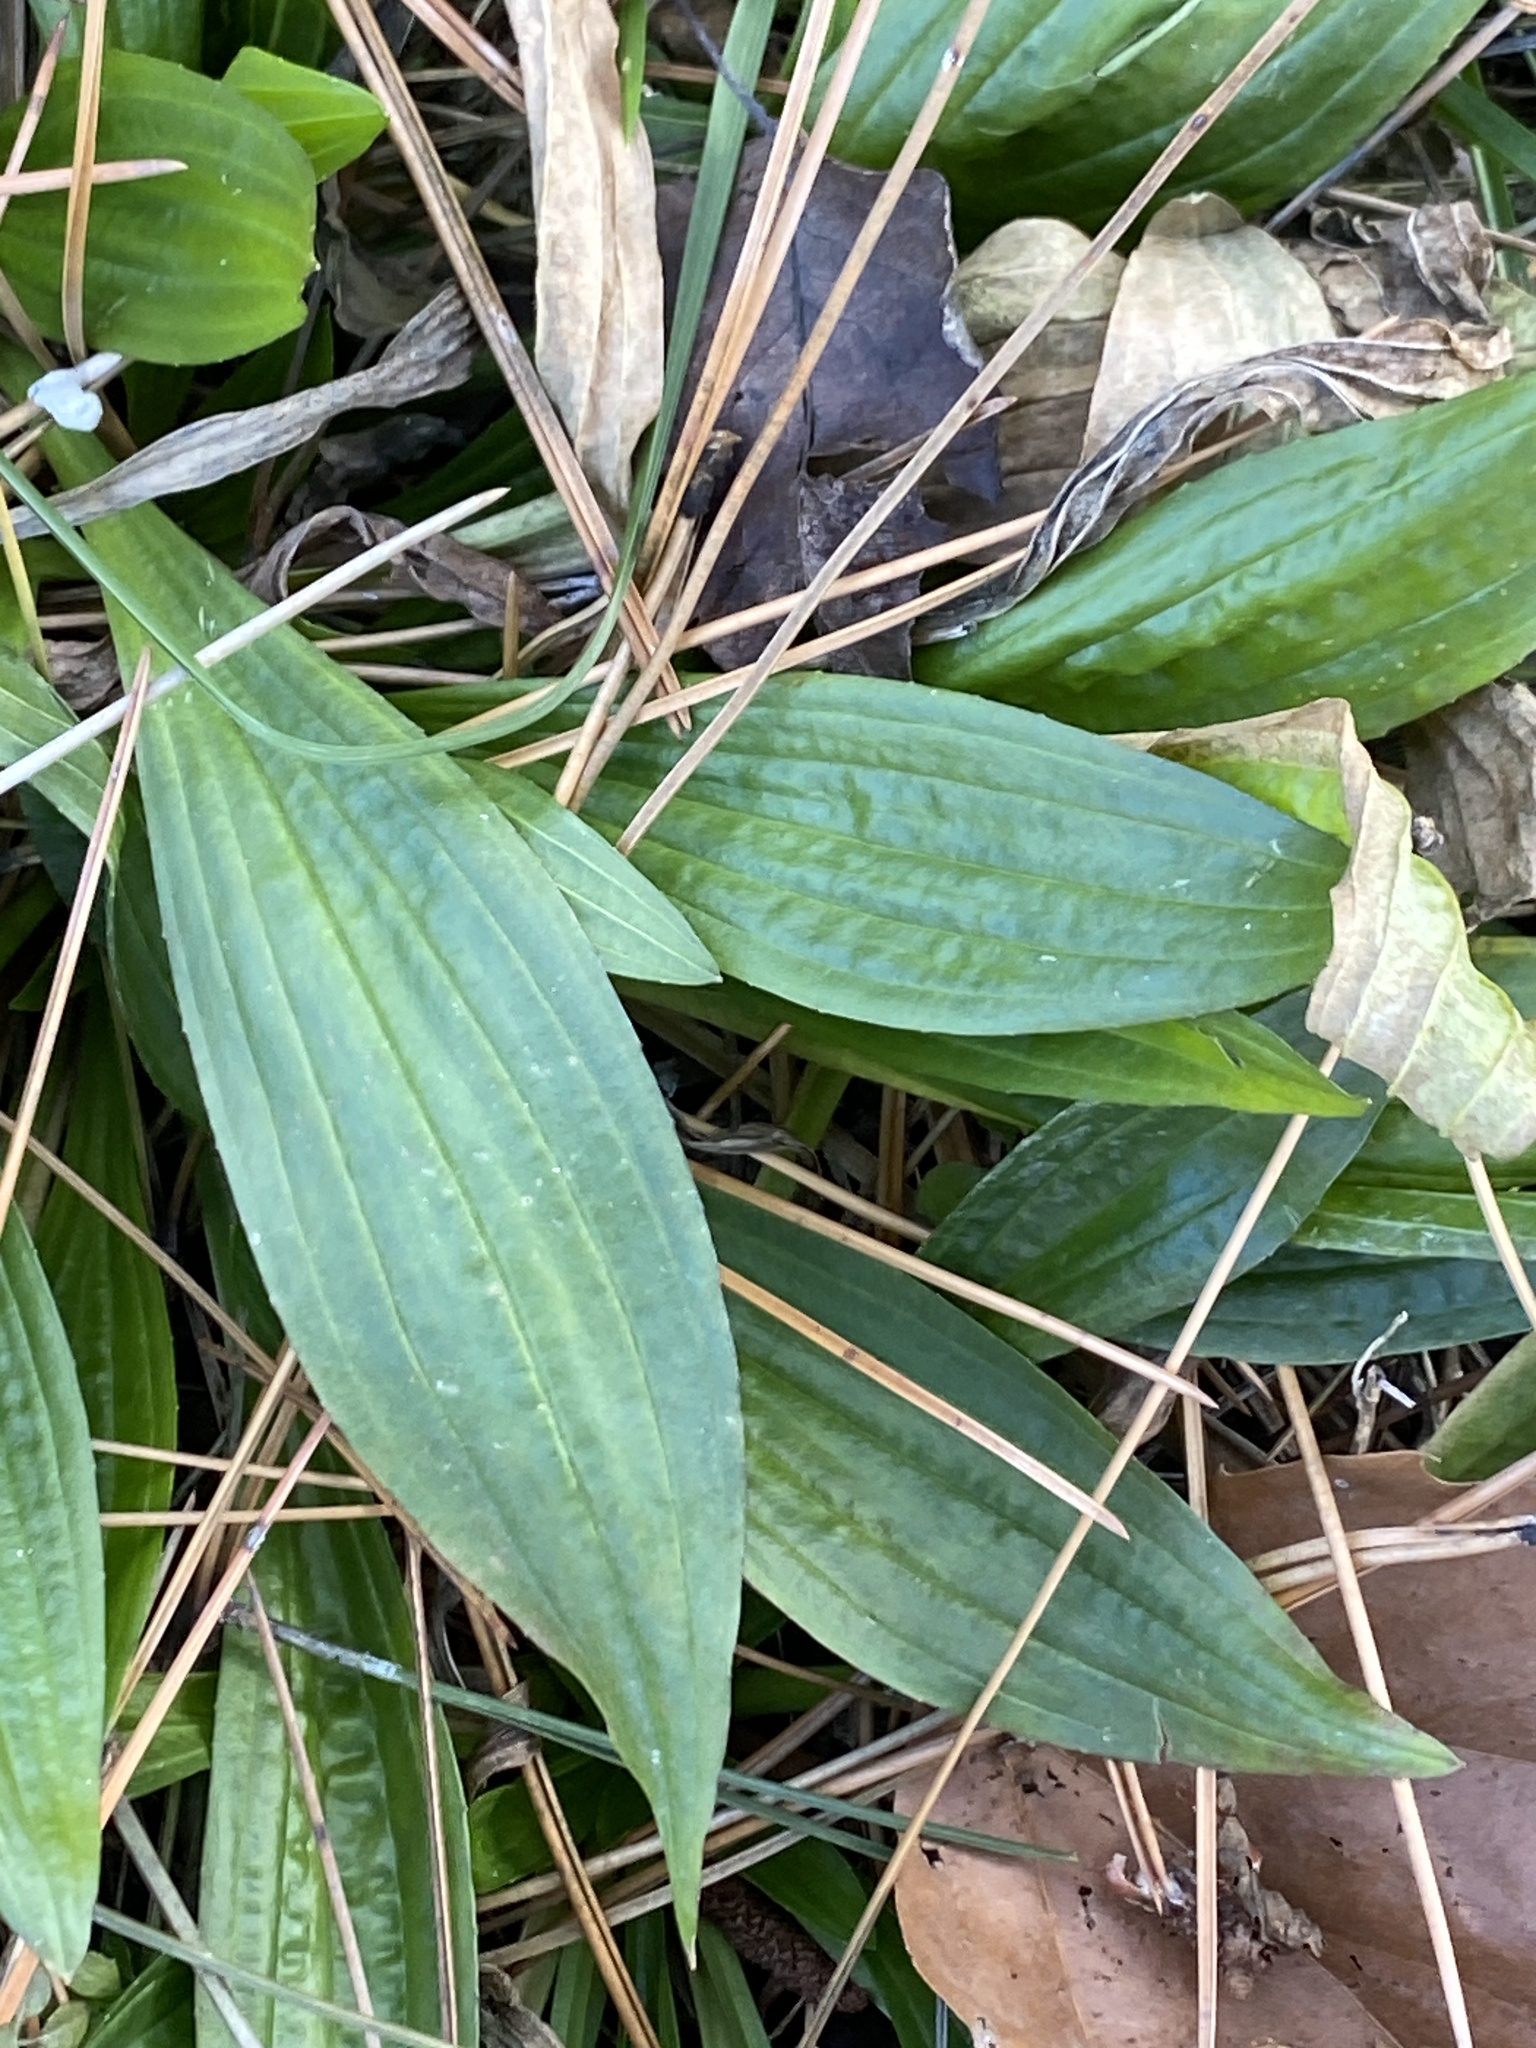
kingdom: Plantae
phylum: Tracheophyta
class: Magnoliopsida
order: Lamiales
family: Plantaginaceae
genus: Plantago
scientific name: Plantago lanceolata
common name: Ribwort plantain
